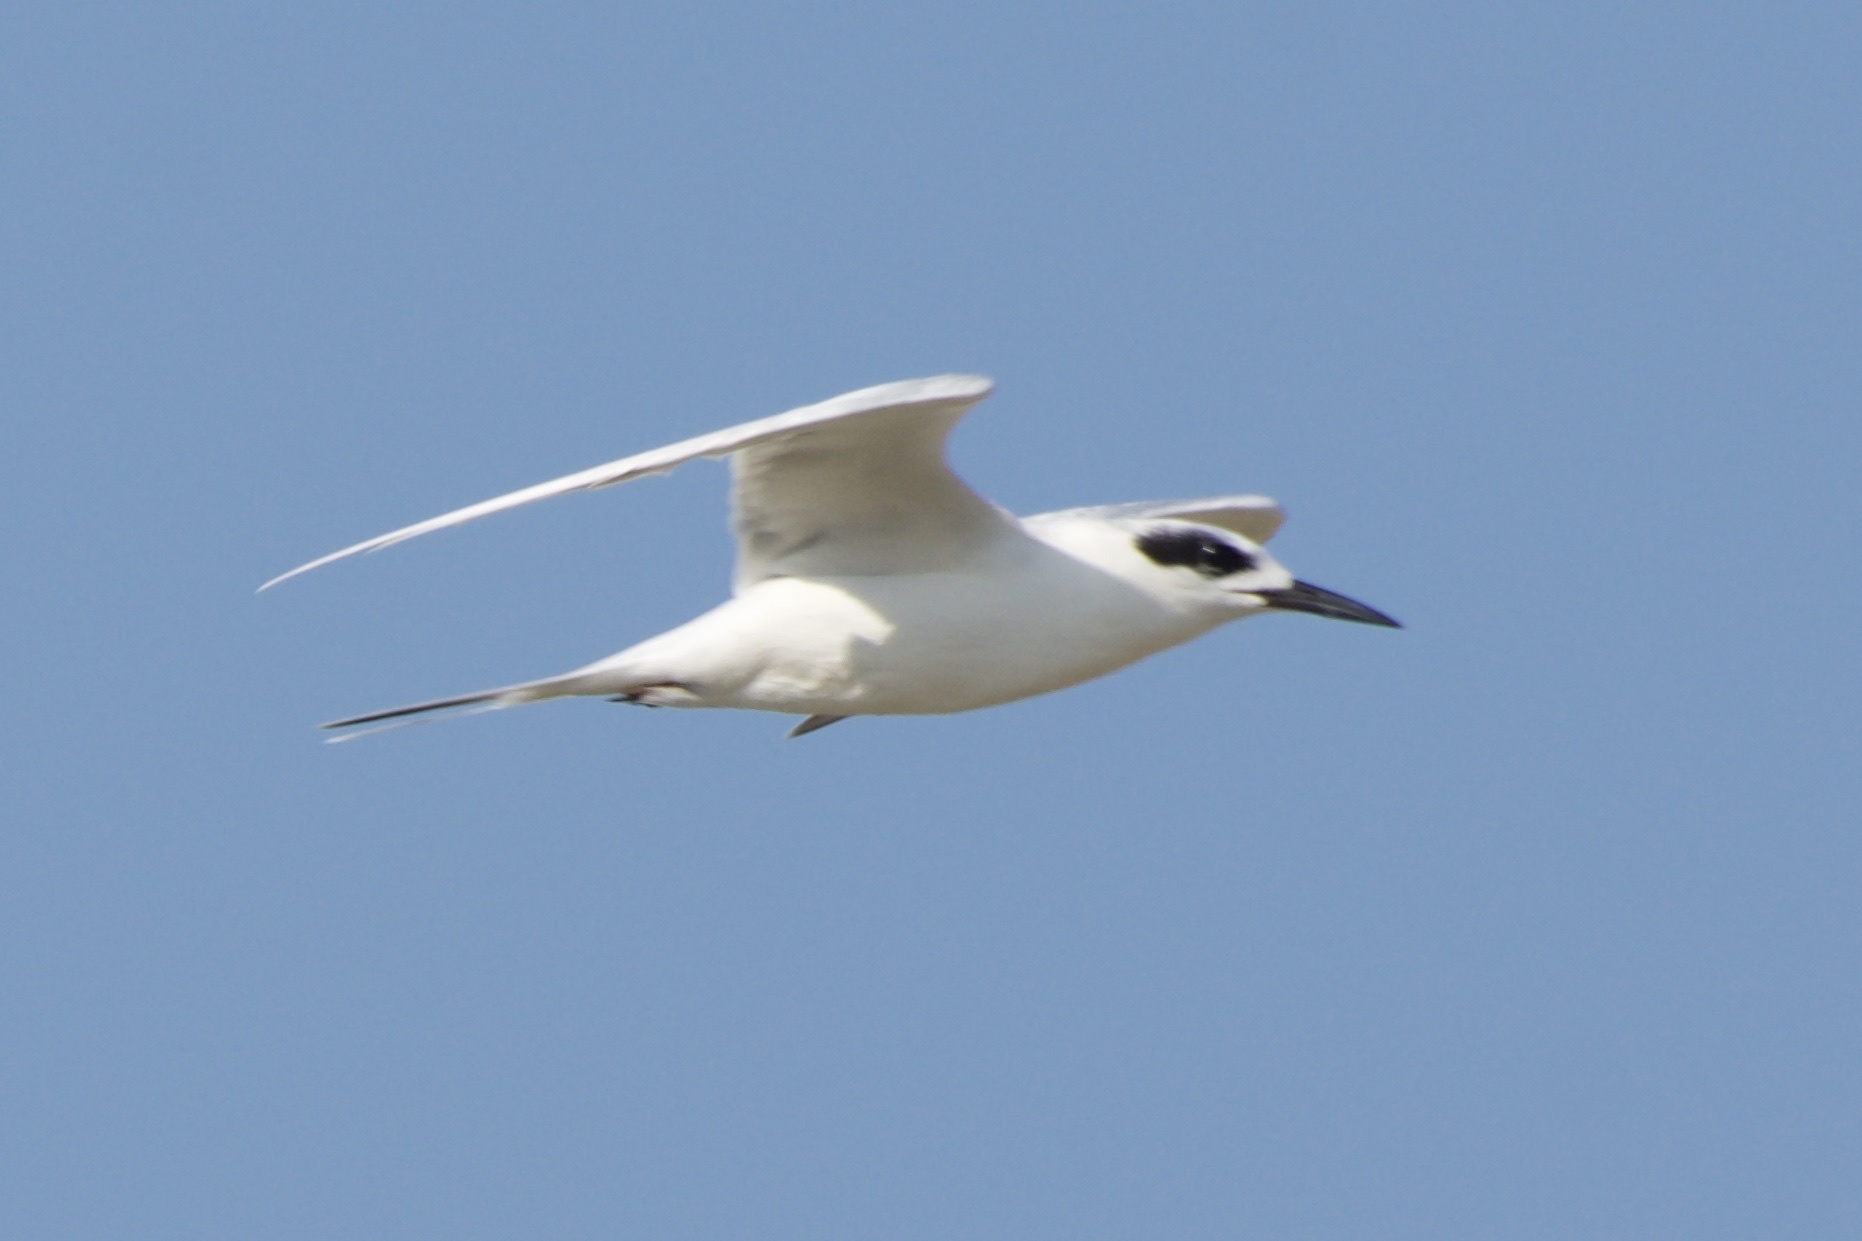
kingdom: Animalia
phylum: Chordata
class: Aves
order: Charadriiformes
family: Laridae
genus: Sterna
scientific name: Sterna forsteri
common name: Forster's tern
